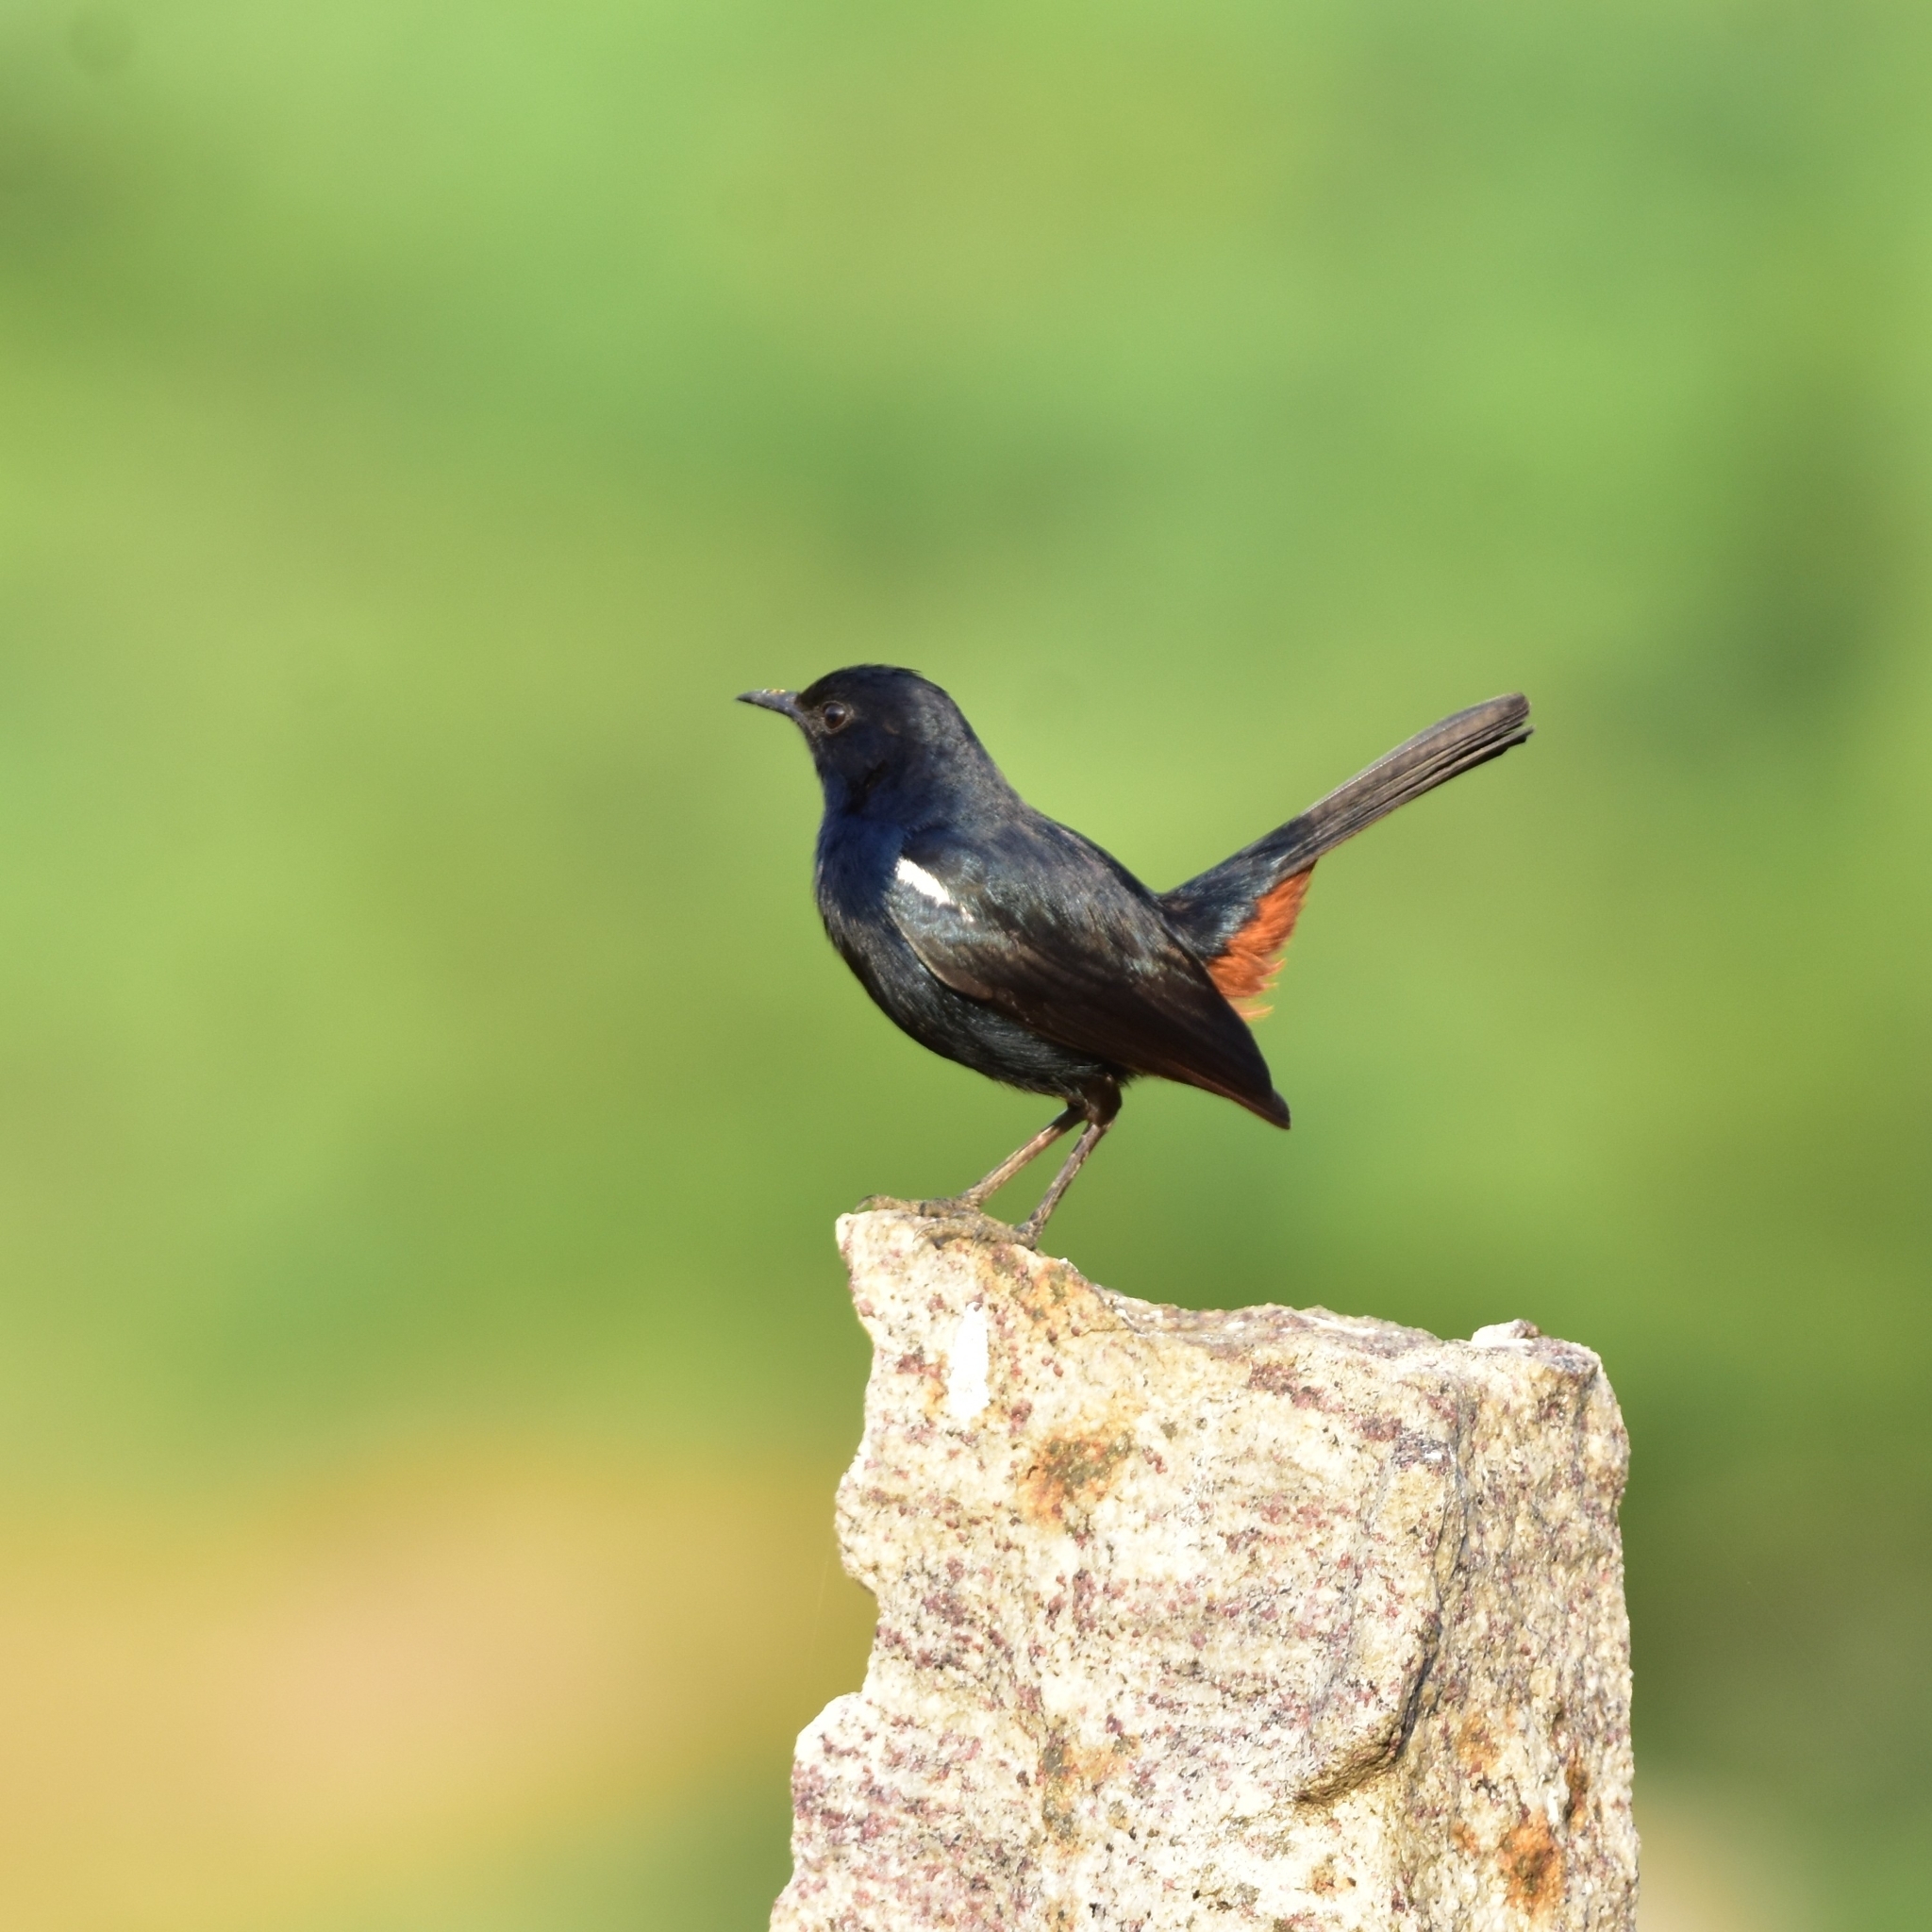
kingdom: Animalia
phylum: Chordata
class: Aves
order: Passeriformes
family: Muscicapidae
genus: Saxicoloides
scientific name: Saxicoloides fulicatus
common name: Indian robin
